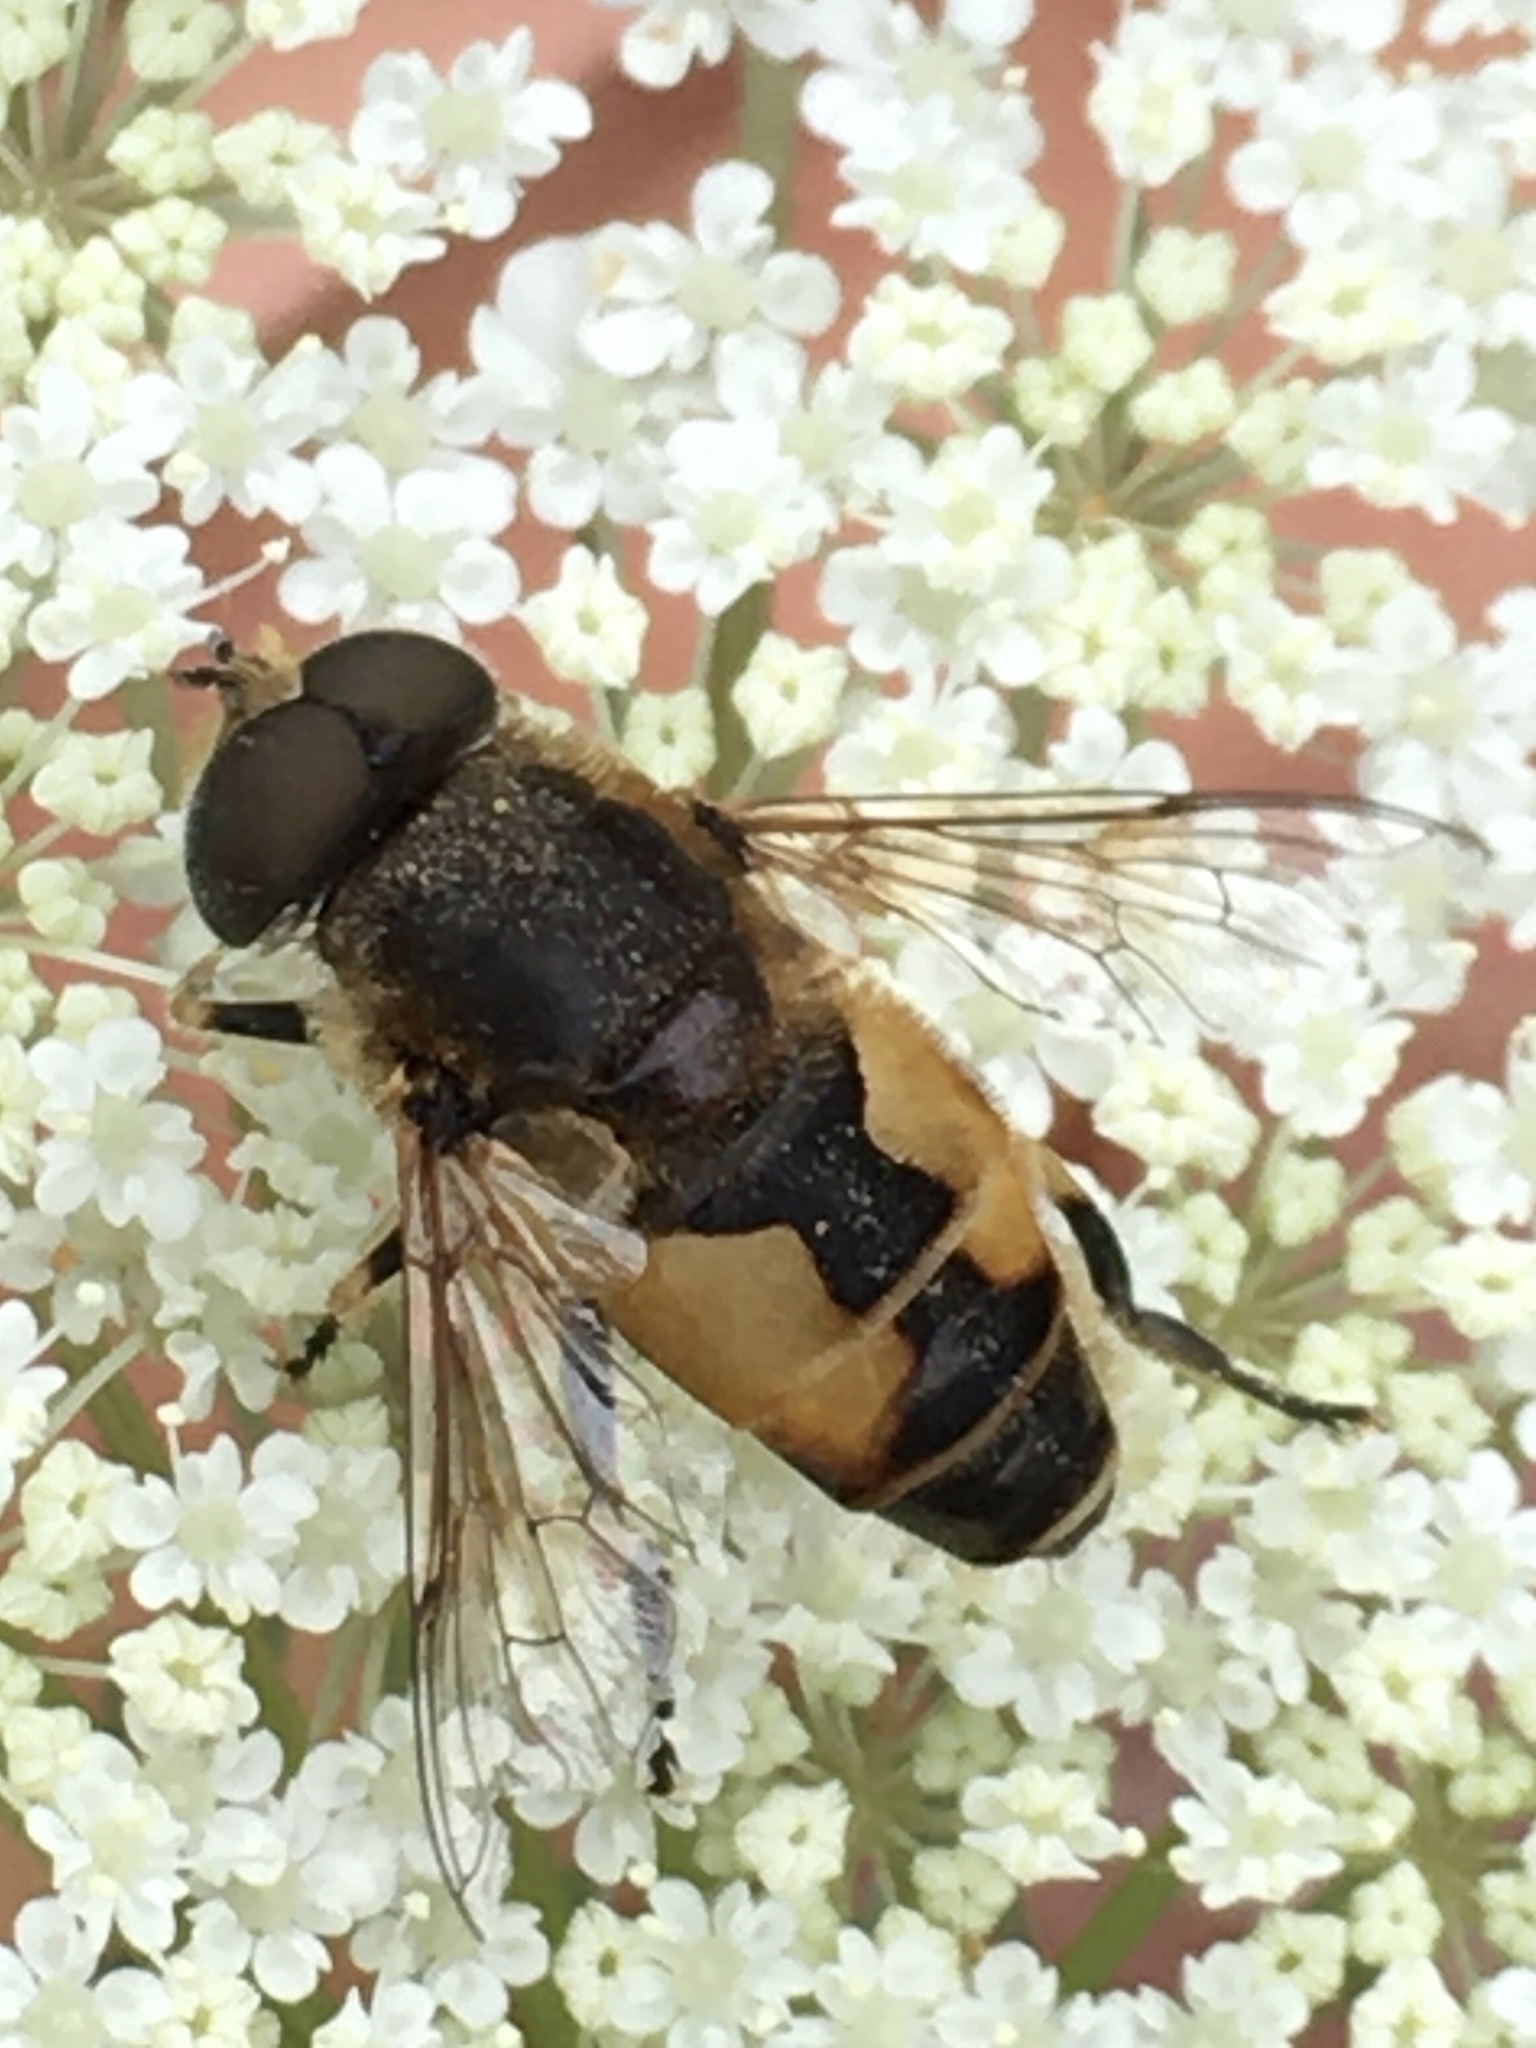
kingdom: Animalia
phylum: Arthropoda
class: Insecta
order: Diptera
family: Syrphidae
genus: Eristalis
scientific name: Eristalis arbustorum
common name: Hover fly
